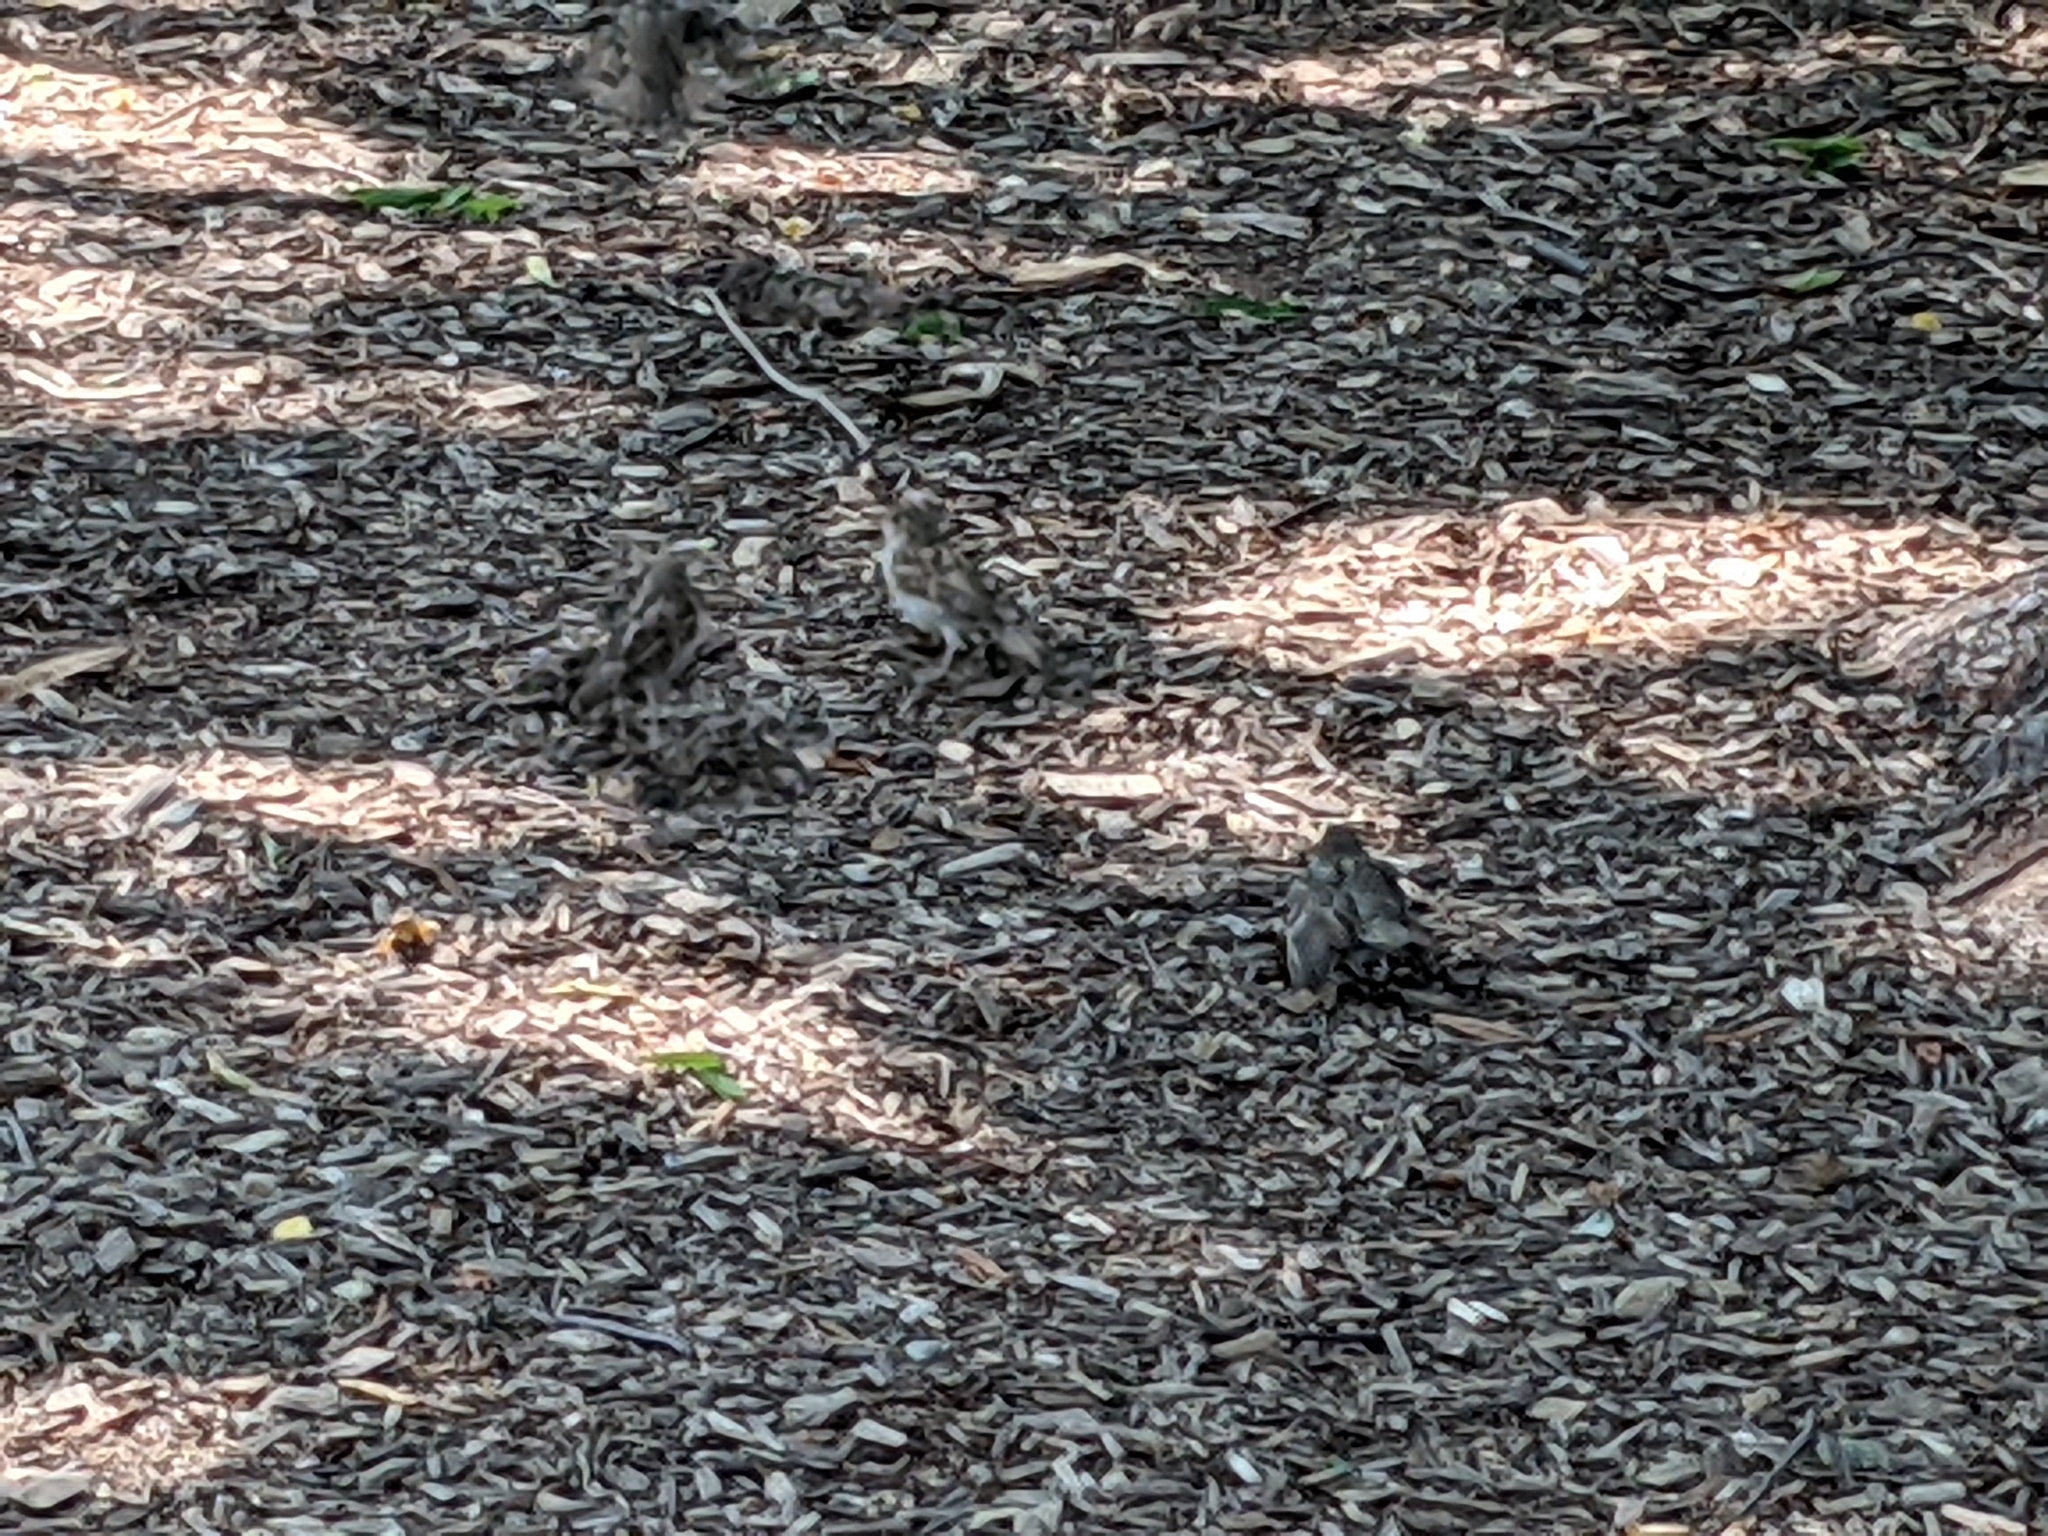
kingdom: Animalia
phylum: Chordata
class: Aves
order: Passeriformes
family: Passeridae
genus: Passer
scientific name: Passer domesticus
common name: House sparrow
